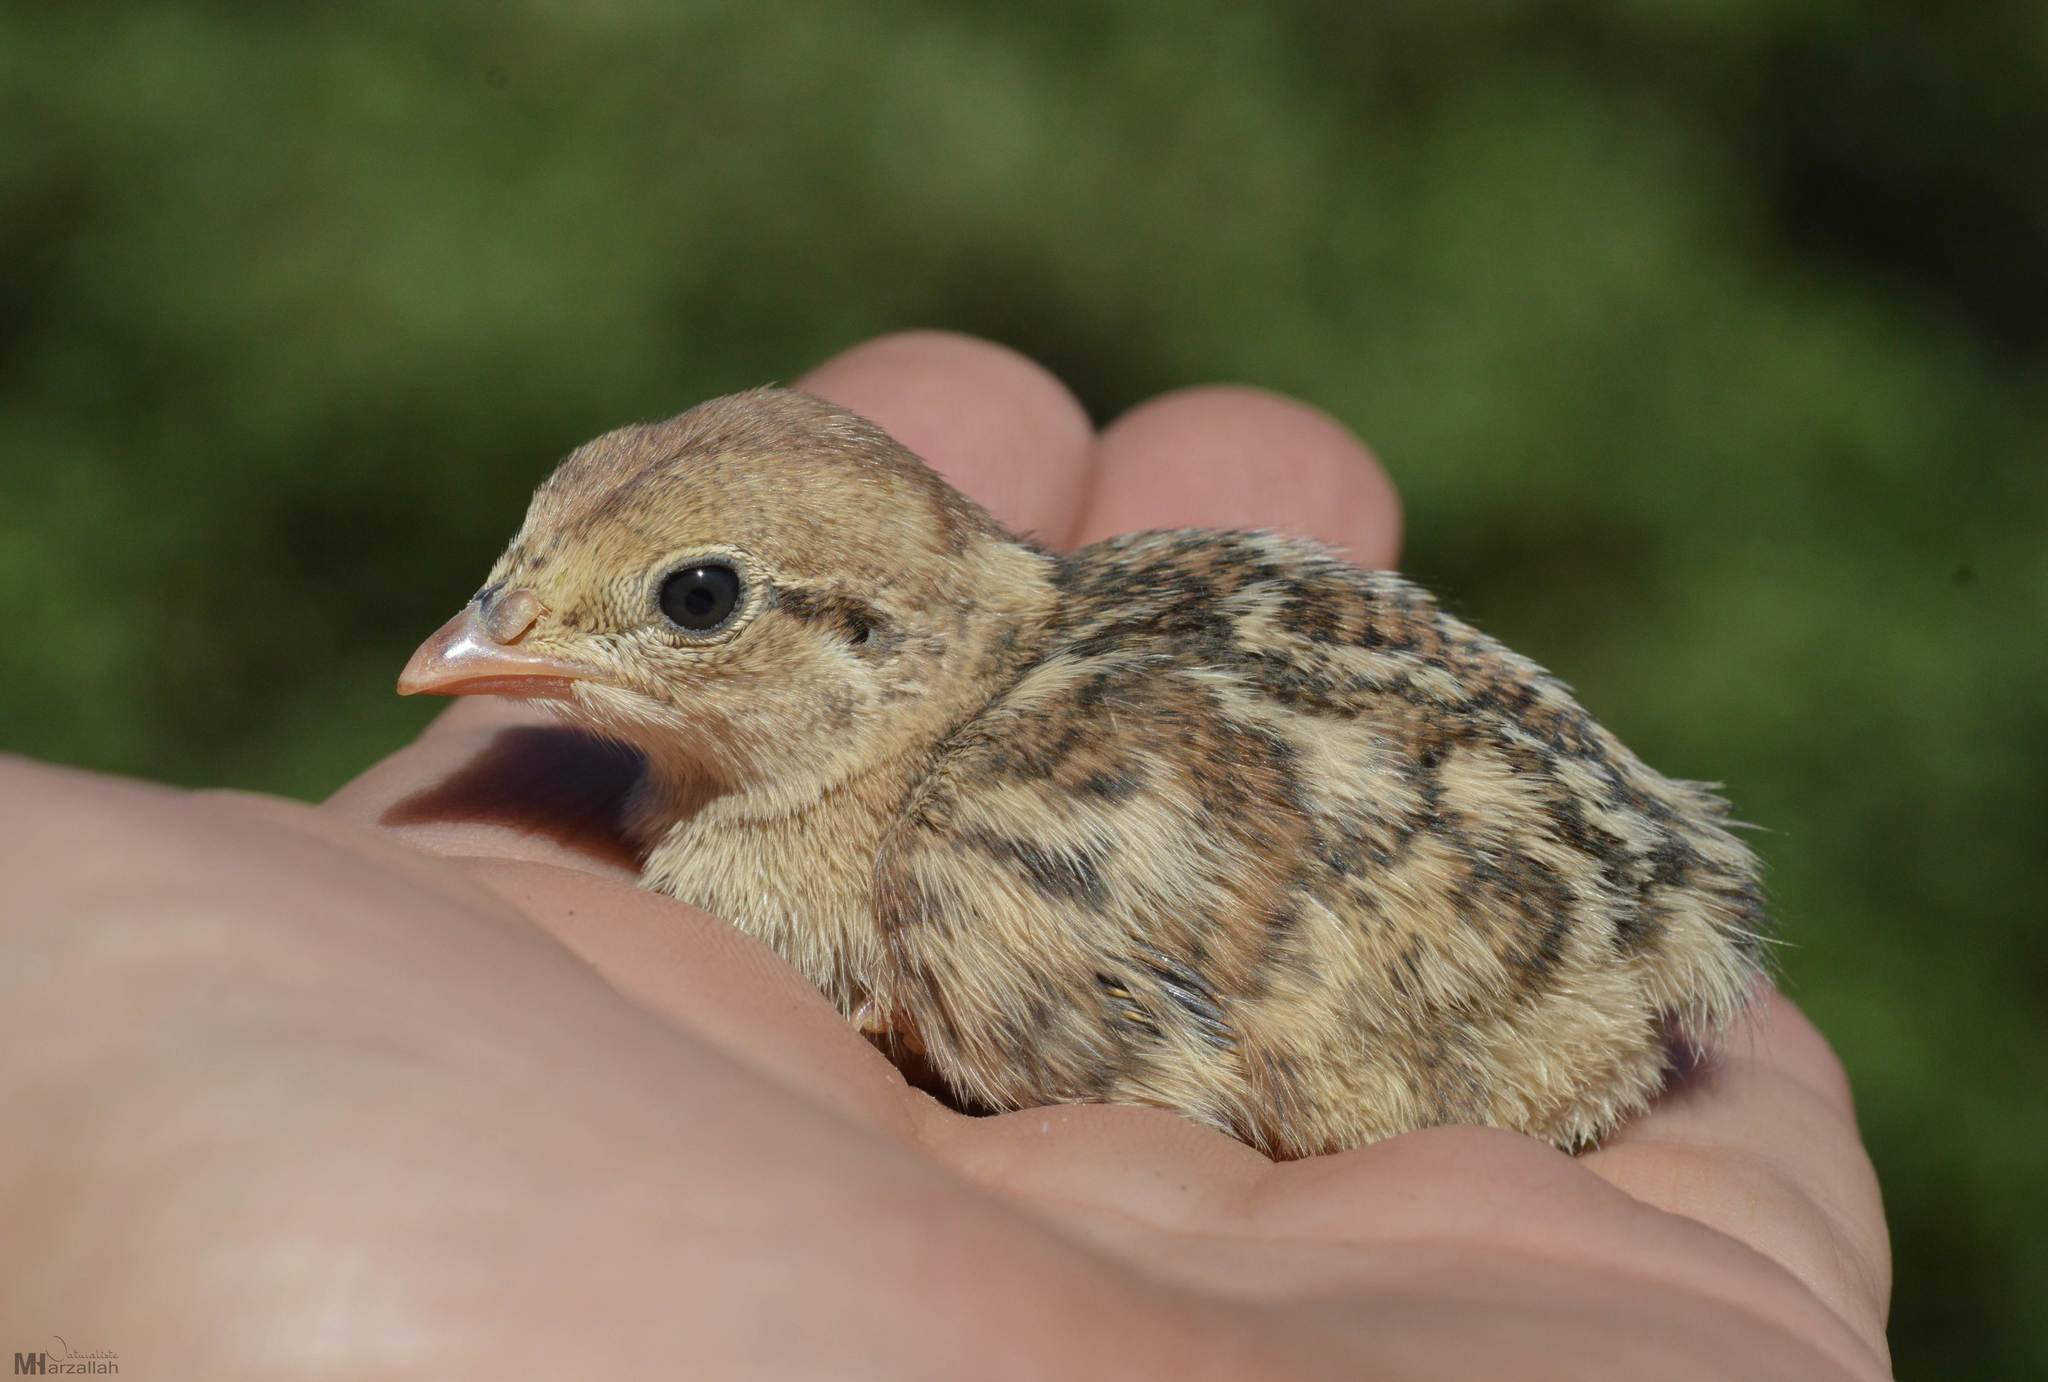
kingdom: Animalia
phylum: Chordata
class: Aves
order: Galliformes
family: Phasianidae
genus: Alectoris
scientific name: Alectoris barbara
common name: Barbary partridge
